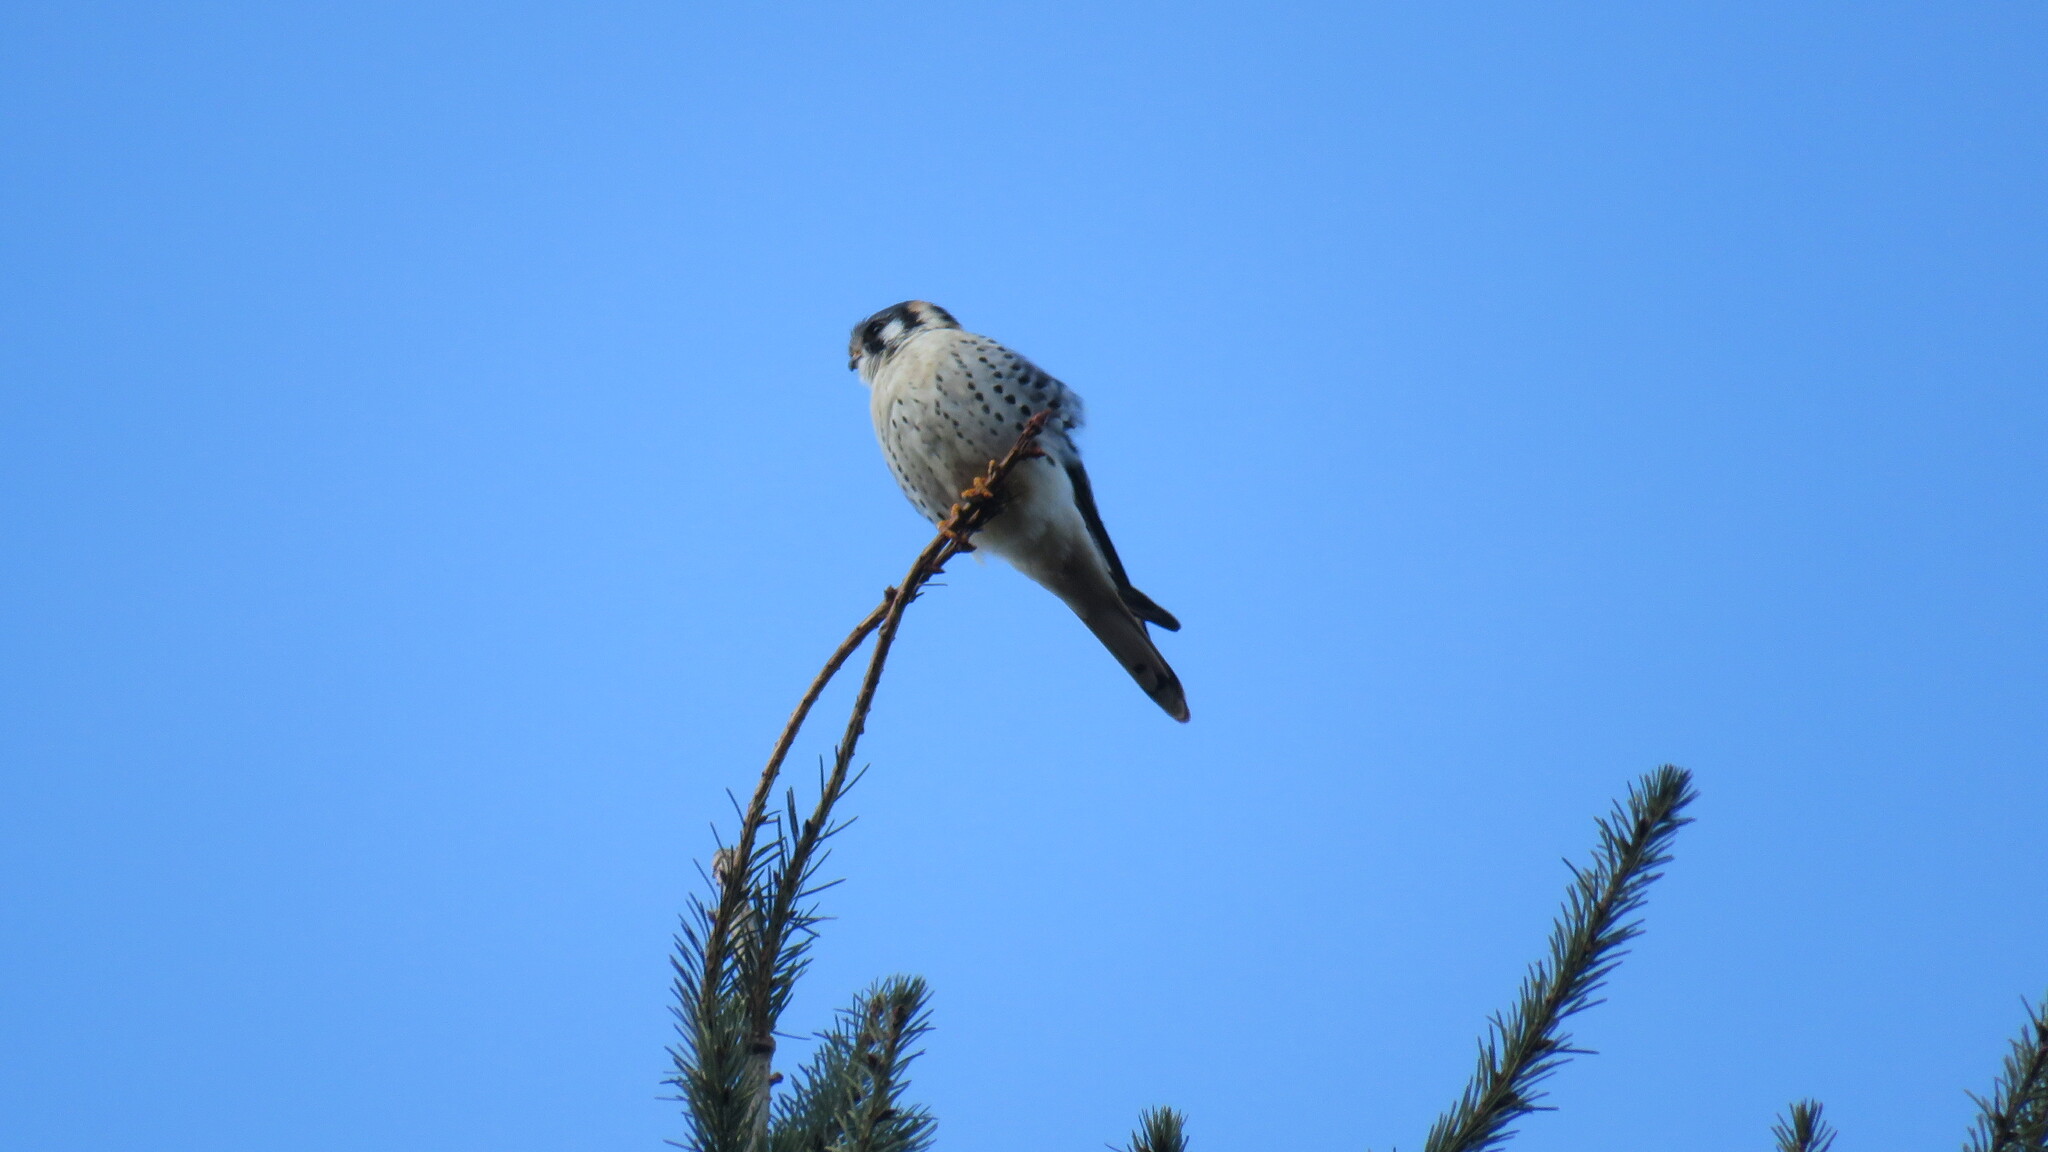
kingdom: Animalia
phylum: Chordata
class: Aves
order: Falconiformes
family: Falconidae
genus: Falco
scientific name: Falco sparverius
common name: American kestrel
